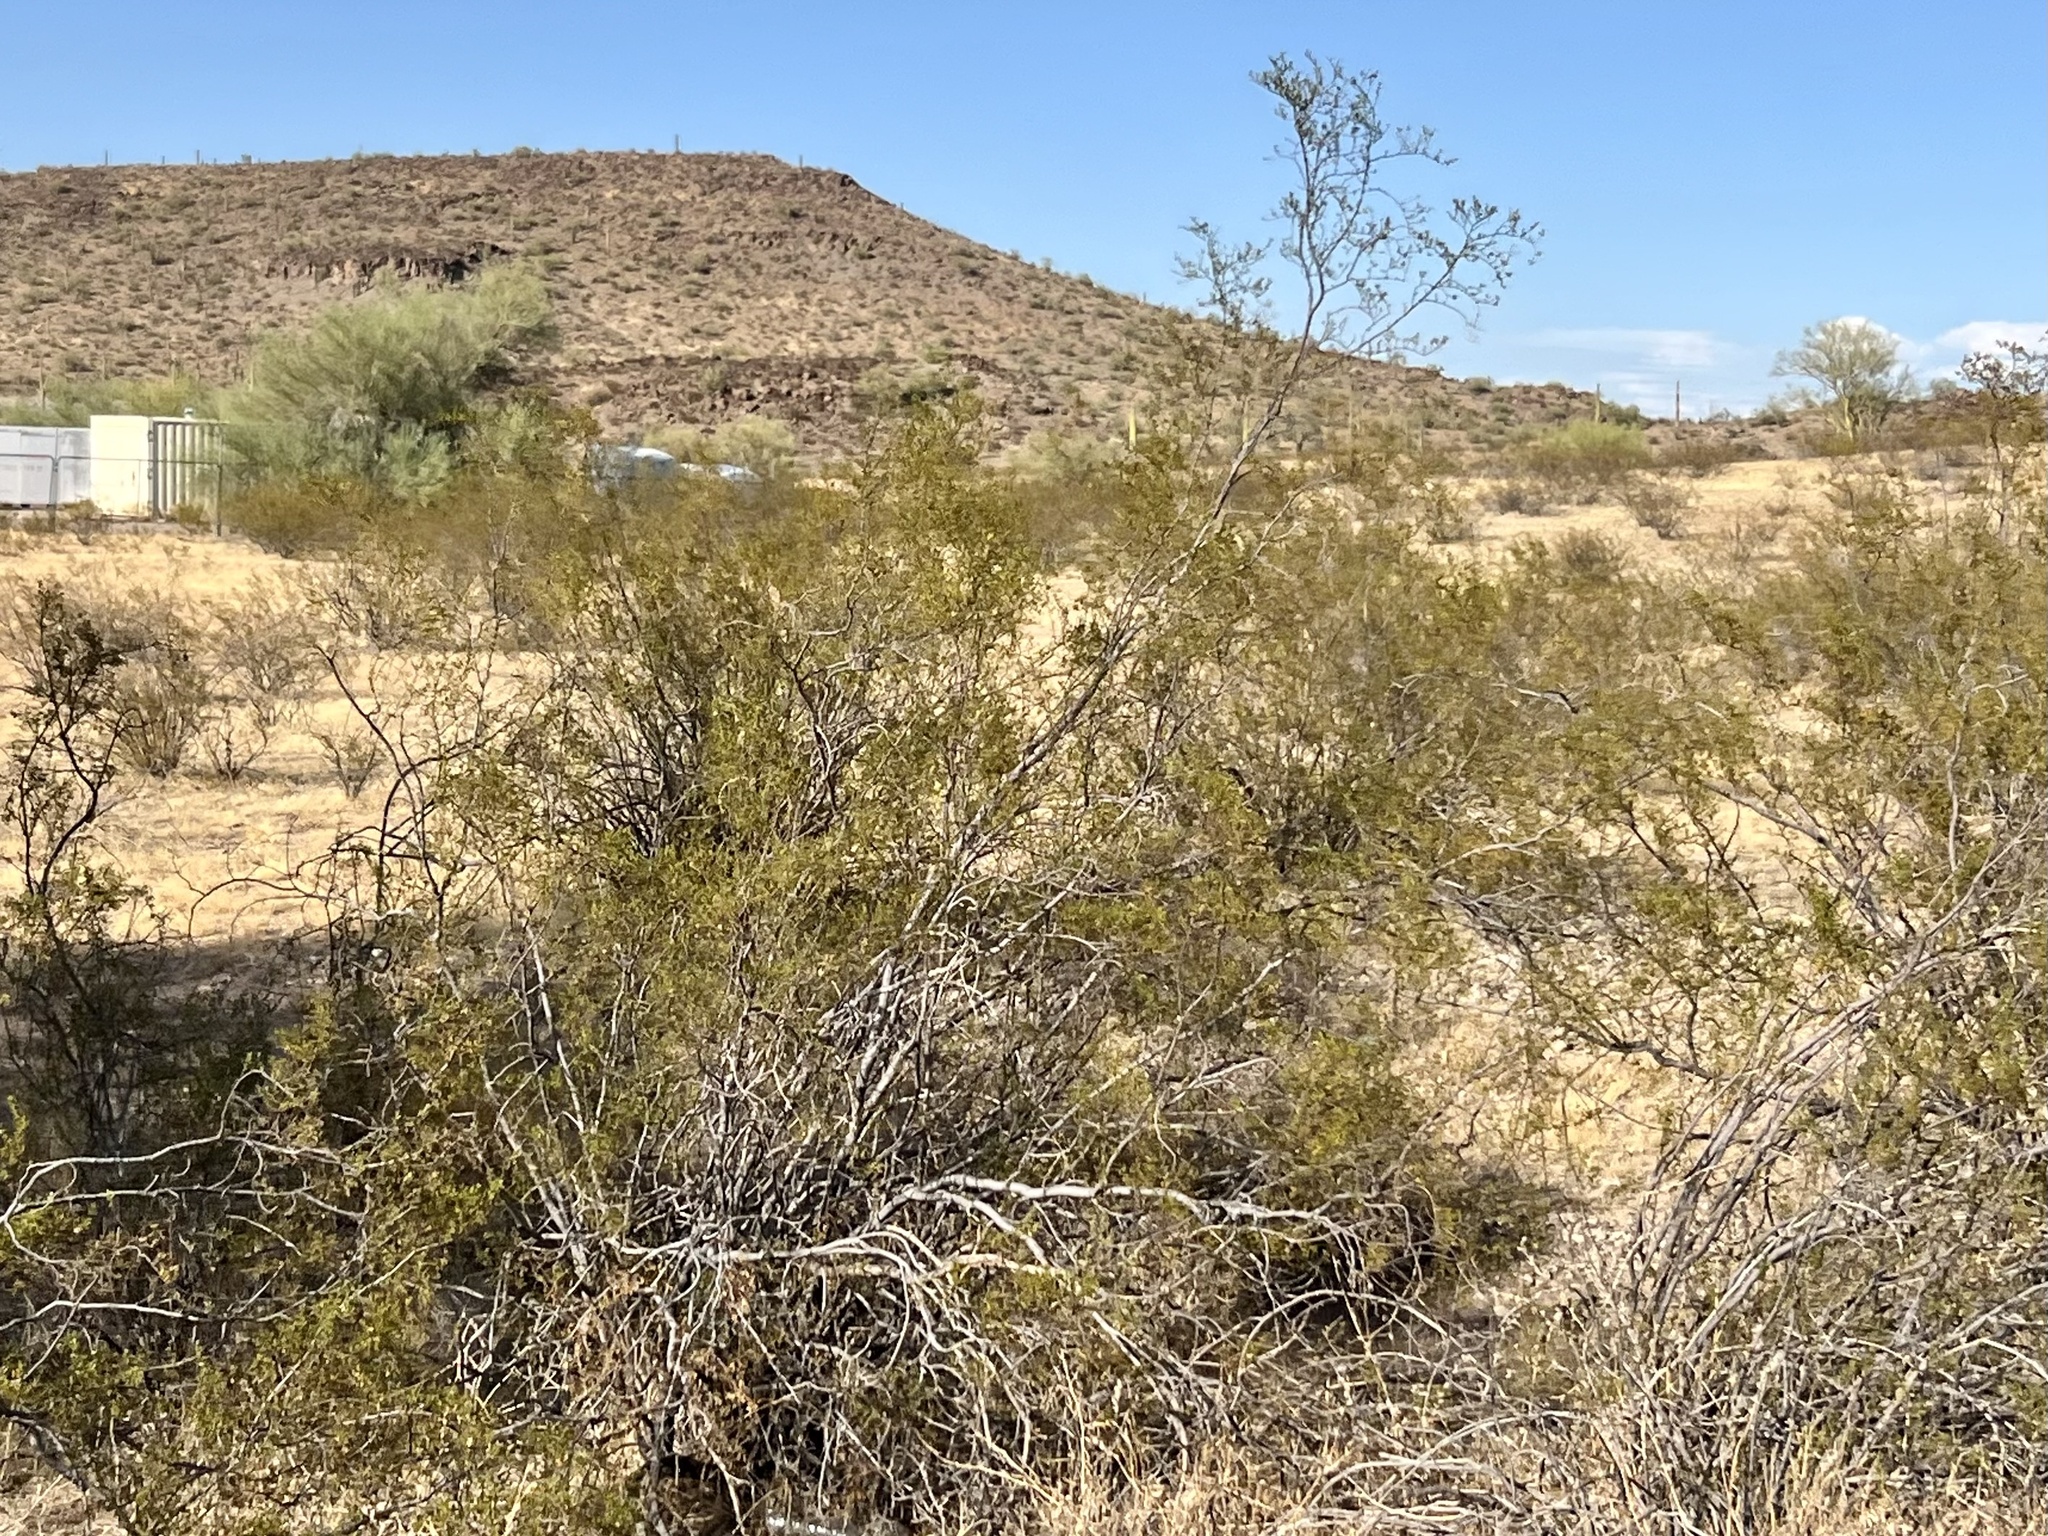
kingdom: Plantae
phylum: Tracheophyta
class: Magnoliopsida
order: Zygophyllales
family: Zygophyllaceae
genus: Larrea
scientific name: Larrea tridentata
